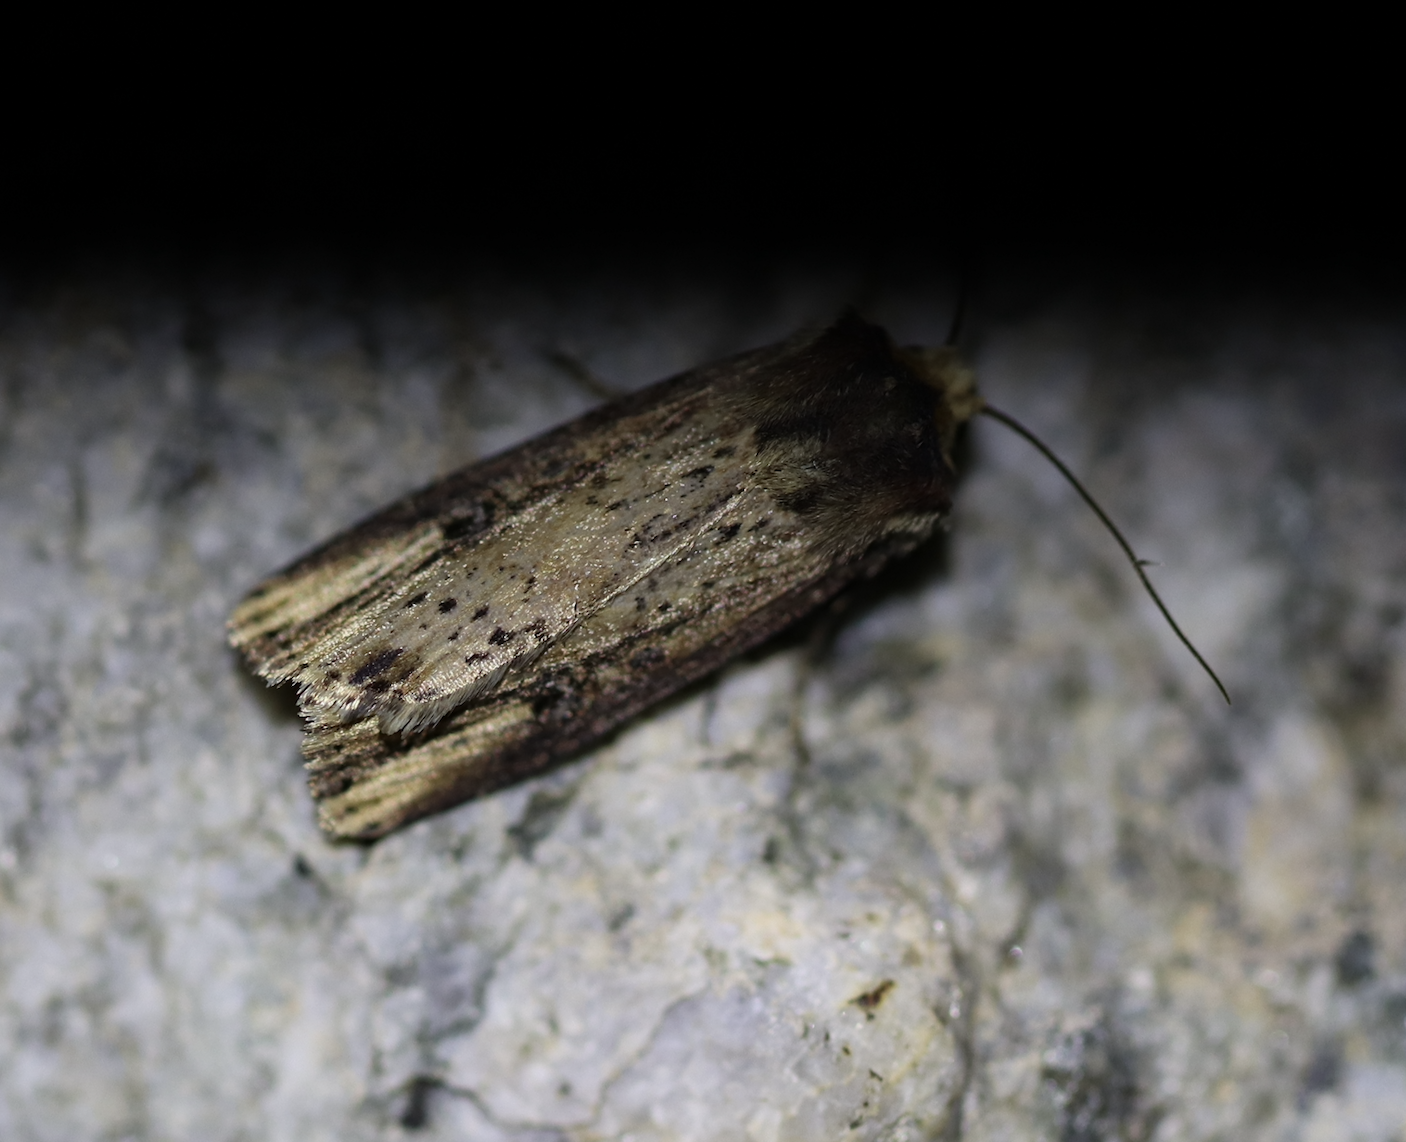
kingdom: Animalia
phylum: Arthropoda
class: Insecta
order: Lepidoptera
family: Noctuidae
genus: Axylia
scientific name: Axylia putris
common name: Flame
